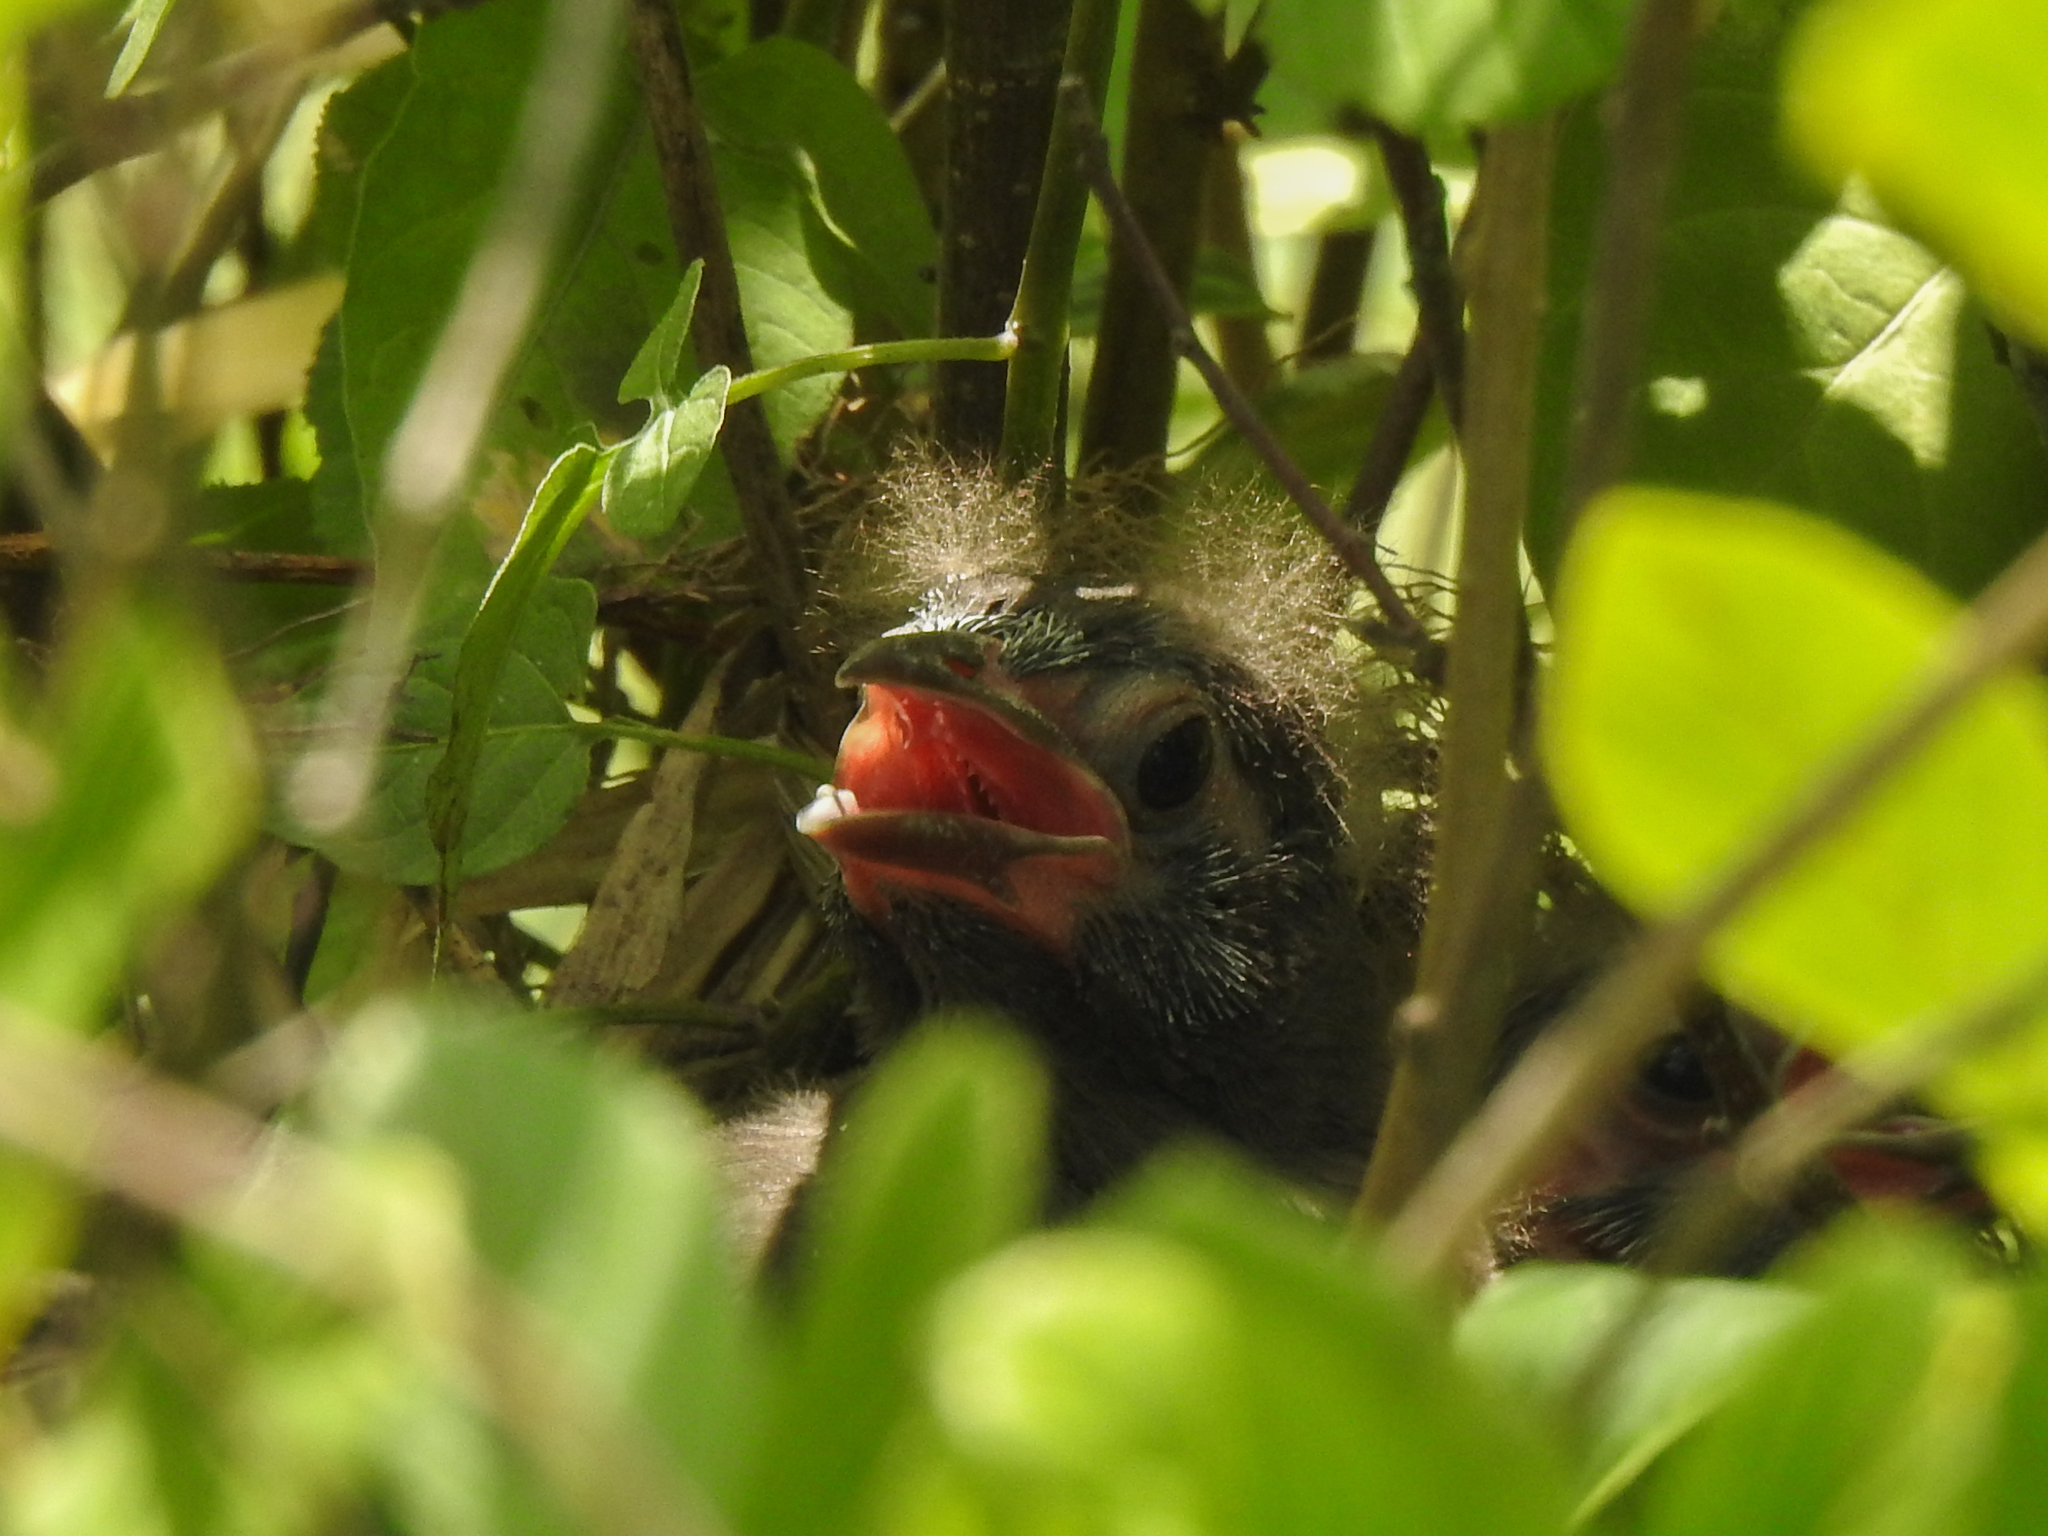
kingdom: Animalia
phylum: Chordata
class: Aves
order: Passeriformes
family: Icteridae
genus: Quiscalus
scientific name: Quiscalus quiscula
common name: Common grackle
